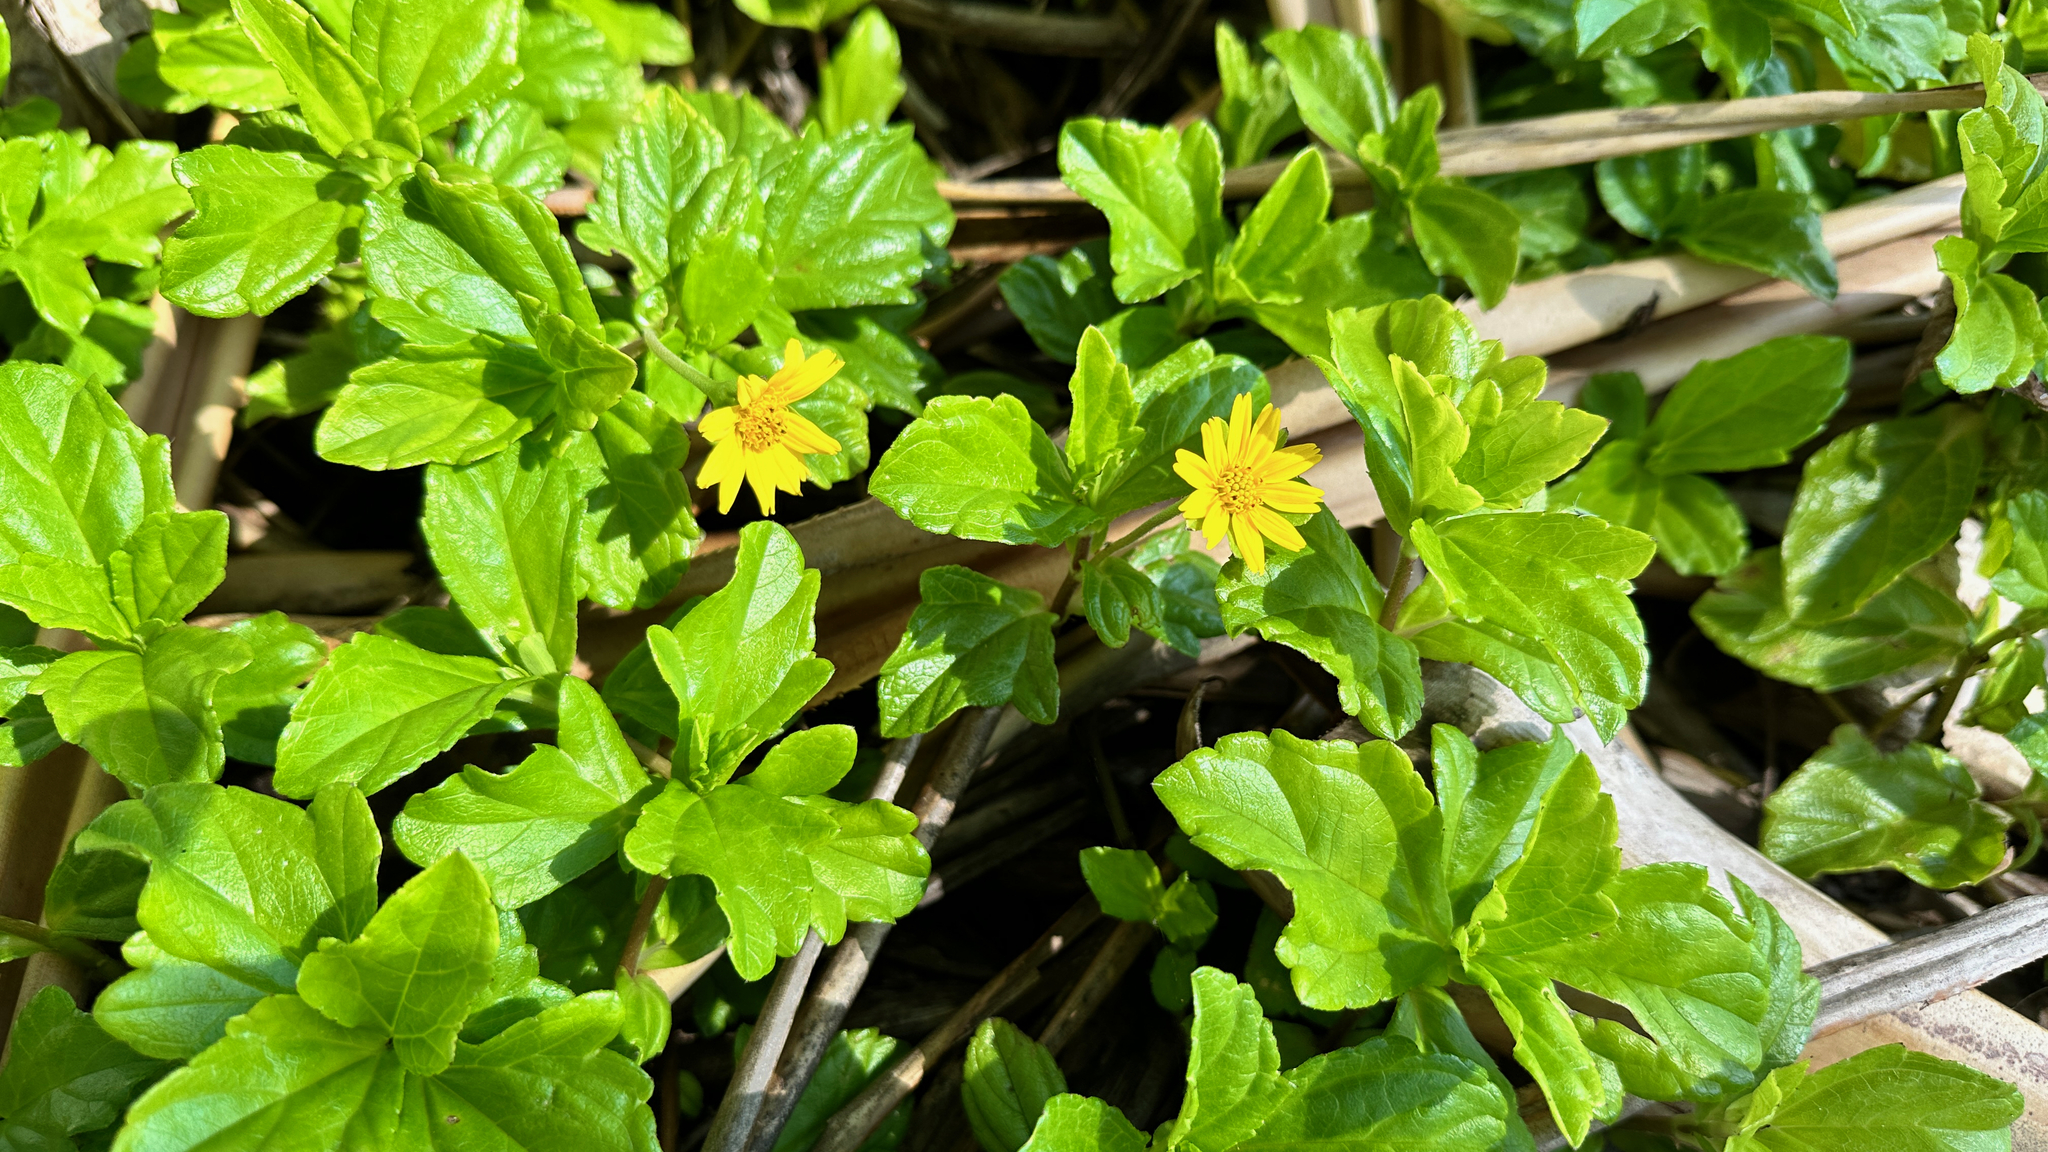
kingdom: Plantae
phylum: Tracheophyta
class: Magnoliopsida
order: Asterales
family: Asteraceae
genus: Sphagneticola
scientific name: Sphagneticola trilobata
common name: Bay biscayne creeping-oxeye
